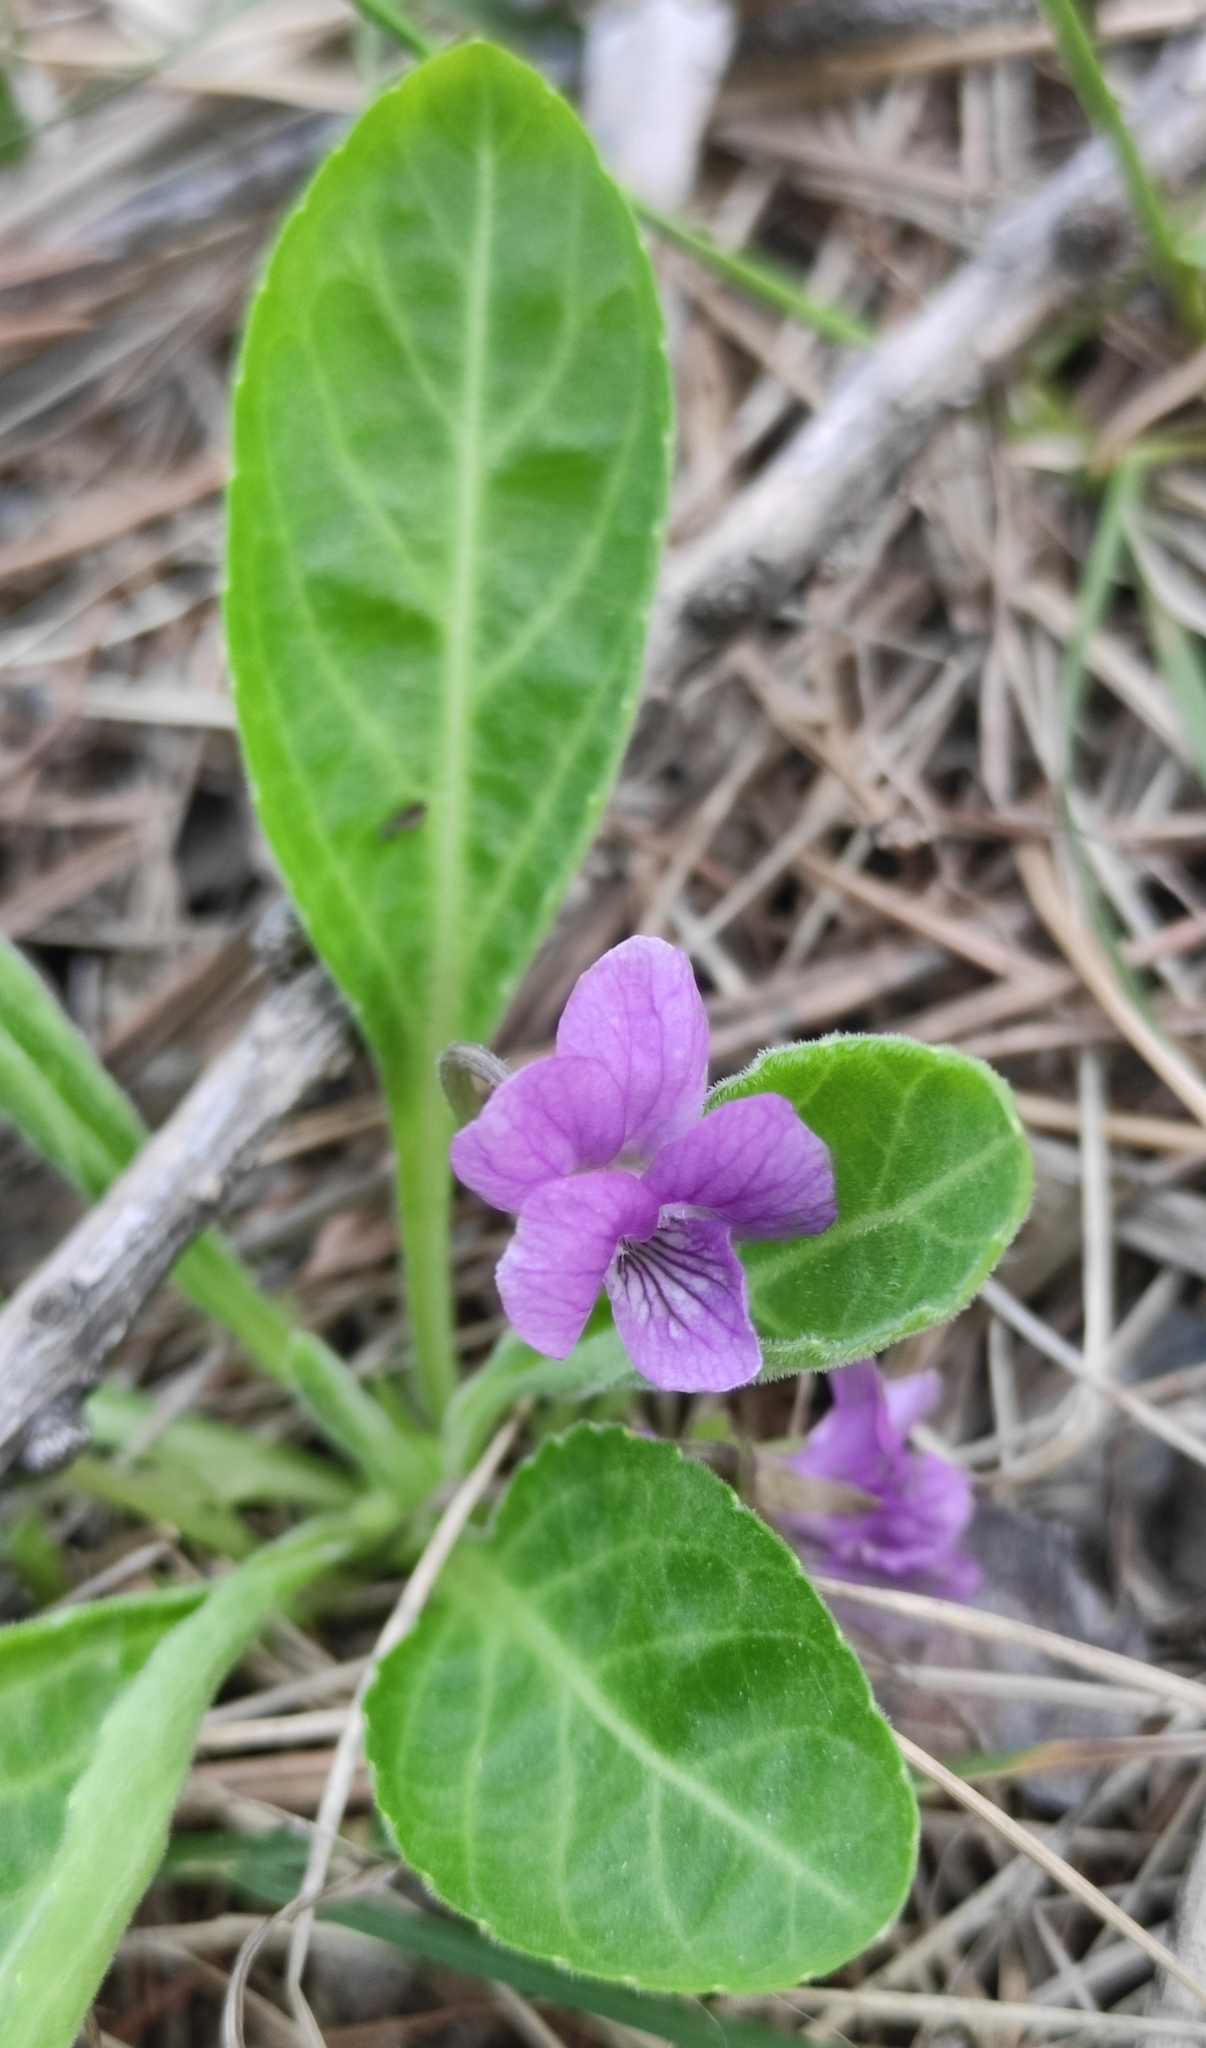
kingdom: Plantae
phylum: Tracheophyta
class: Magnoliopsida
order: Malpighiales
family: Violaceae
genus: Viola
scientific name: Viola gmeliniana
